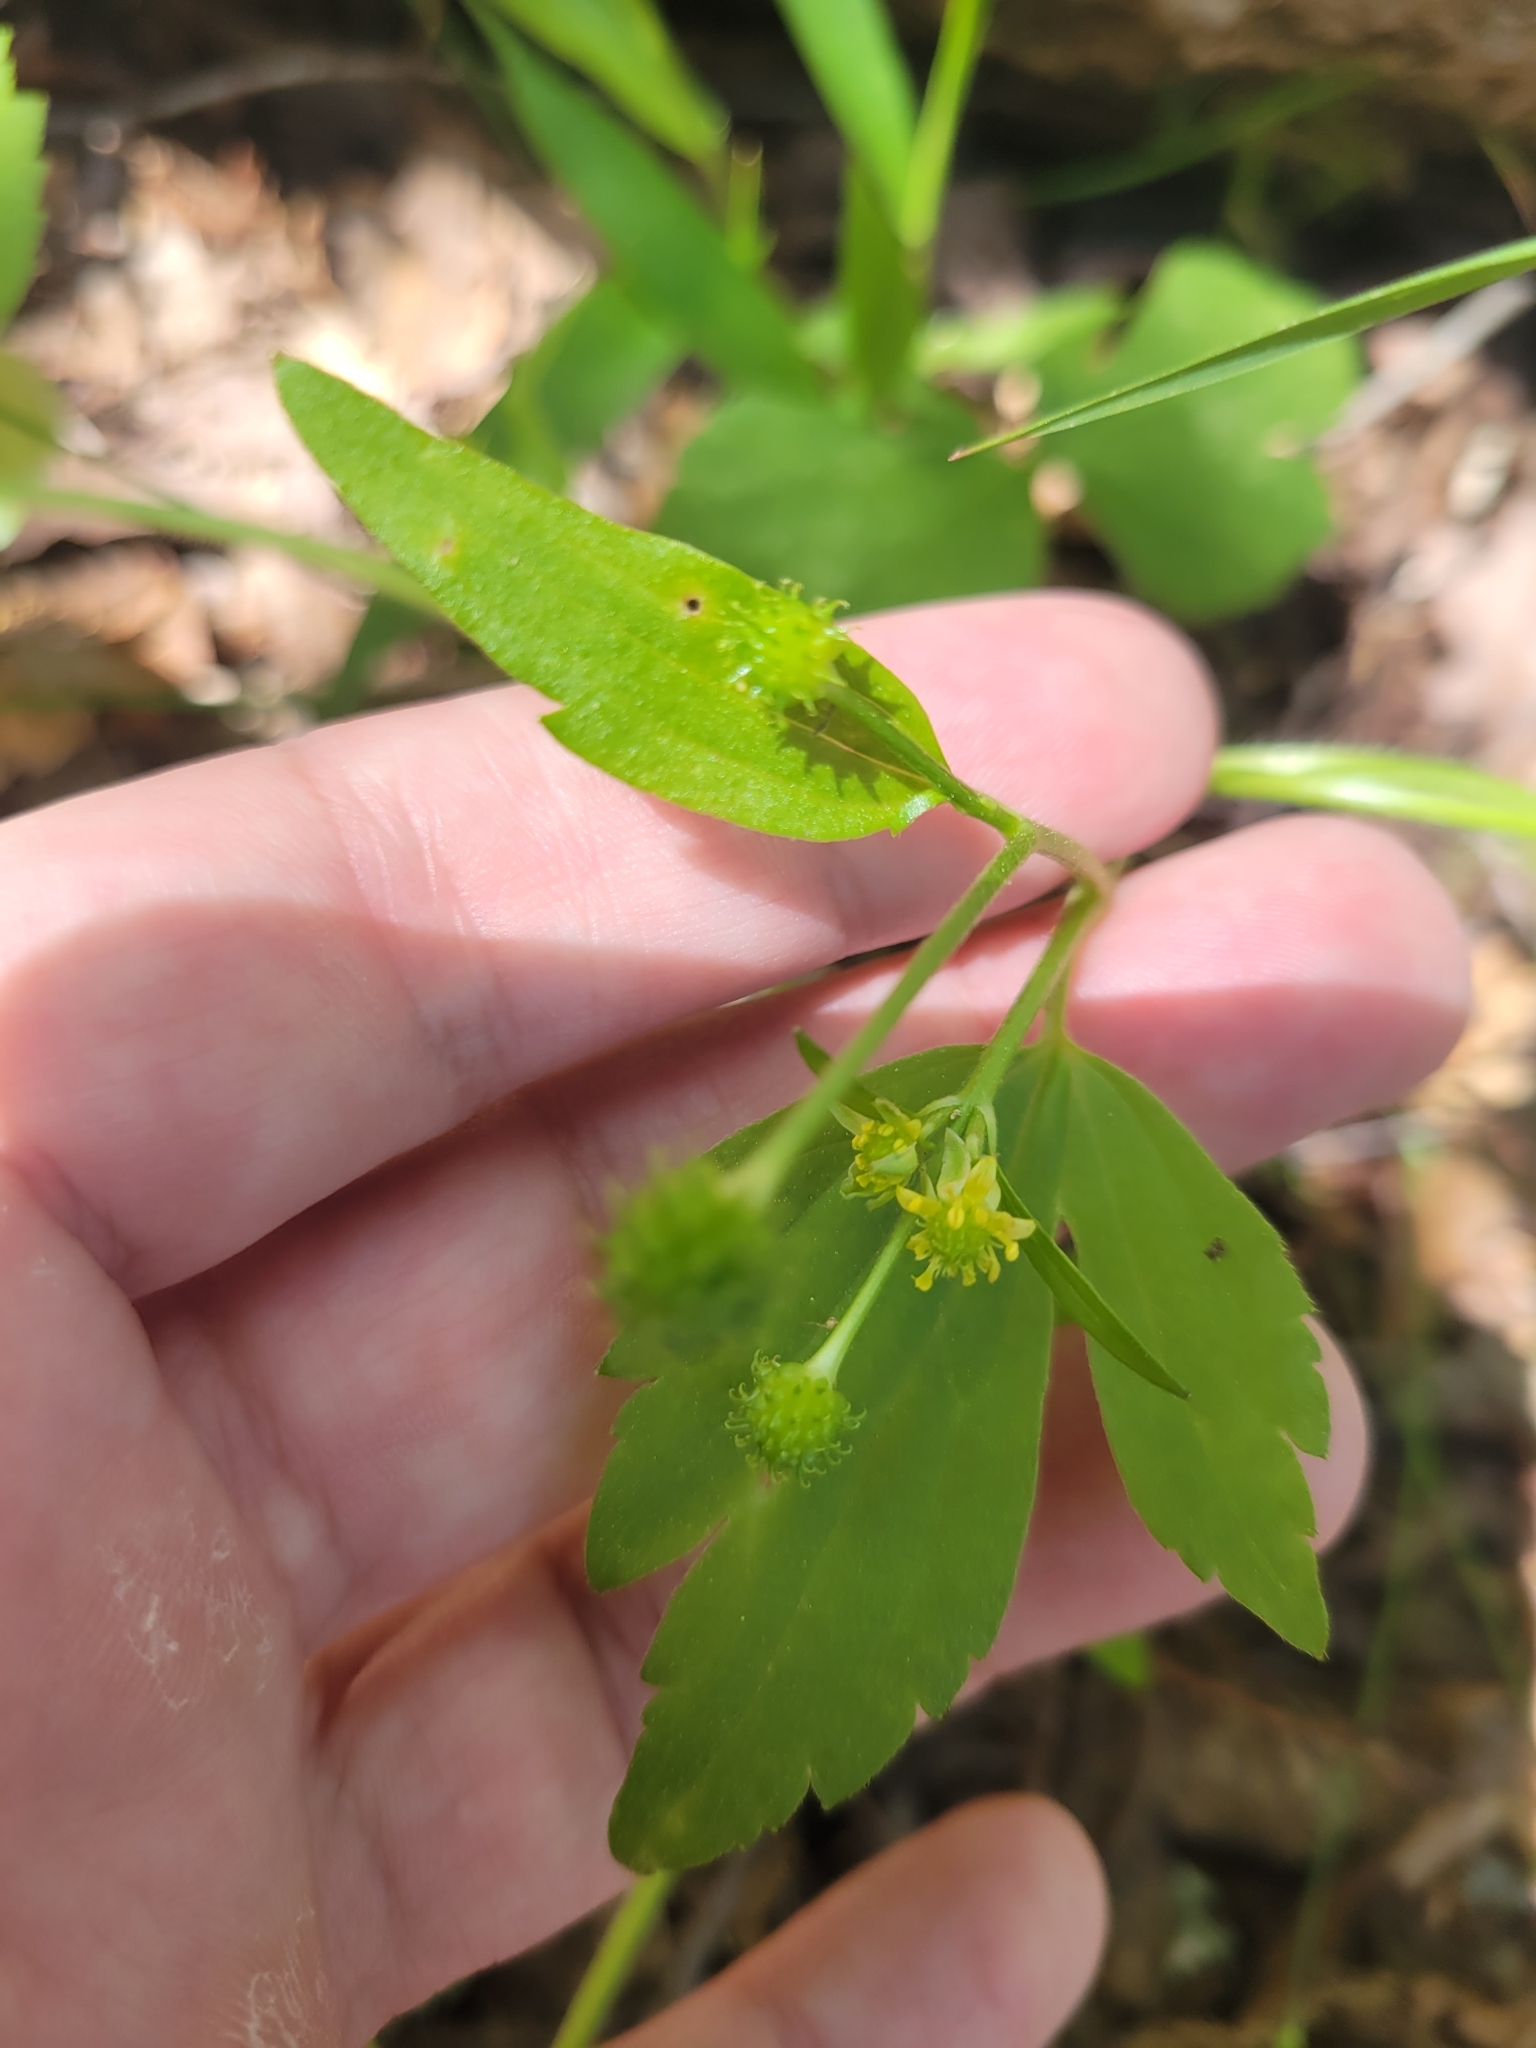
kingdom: Plantae
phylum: Tracheophyta
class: Magnoliopsida
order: Ranunculales
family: Ranunculaceae
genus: Ranunculus
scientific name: Ranunculus recurvatus
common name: Blisterwort
